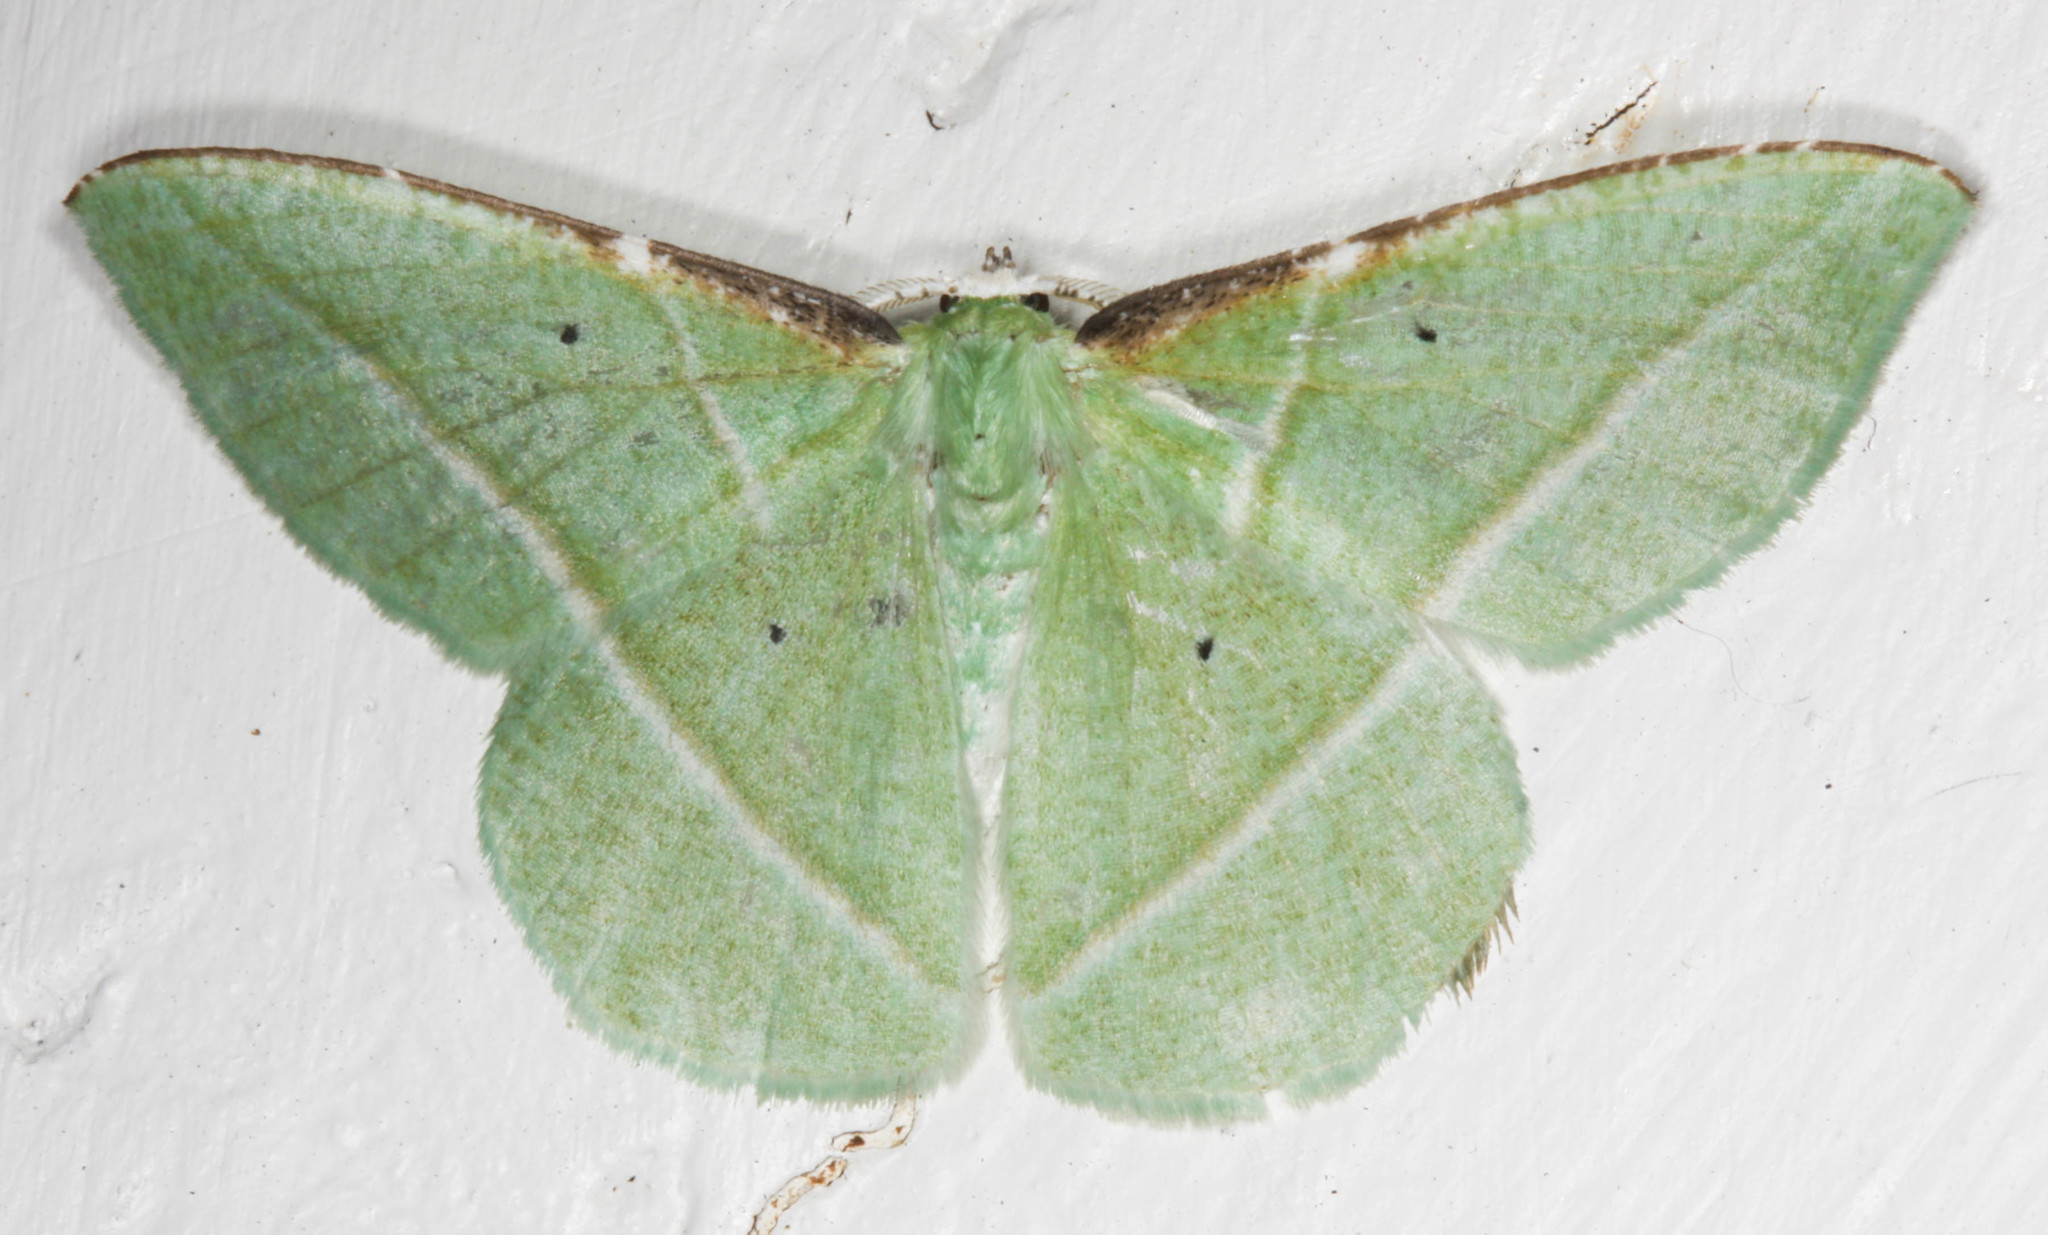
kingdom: Animalia
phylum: Arthropoda
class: Insecta
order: Lepidoptera
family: Geometridae
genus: Dichorda
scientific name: Dichorda illustraria
